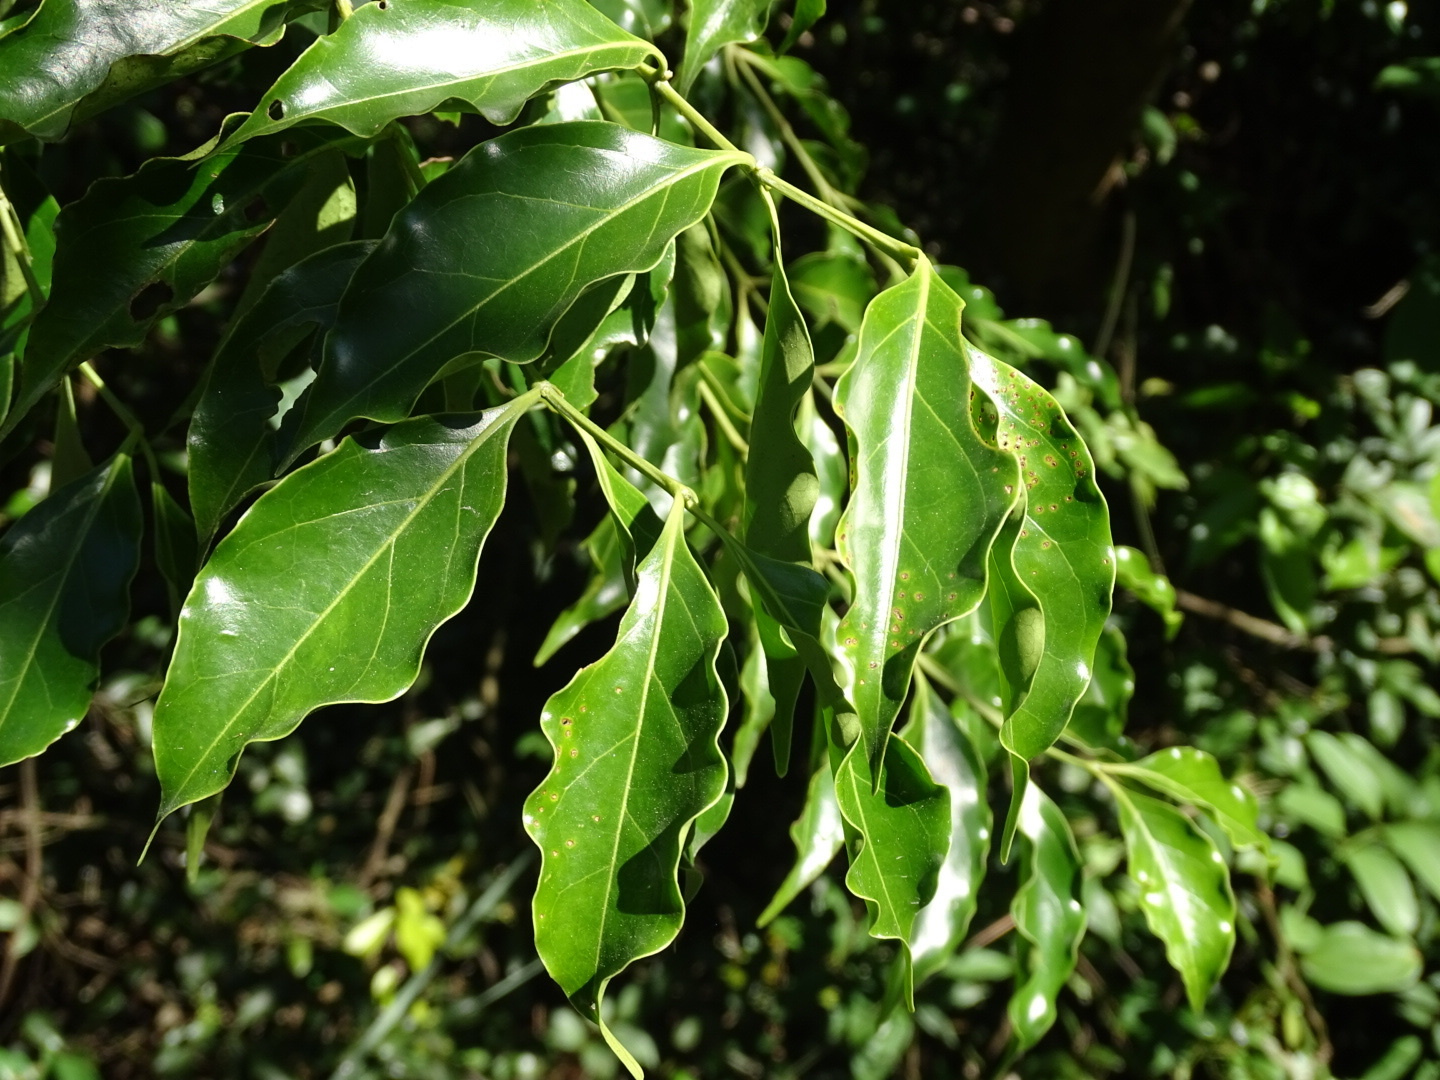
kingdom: Plantae
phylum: Tracheophyta
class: Magnoliopsida
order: Gentianales
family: Rubiaceae
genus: Psydrax
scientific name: Psydrax dicoccos
